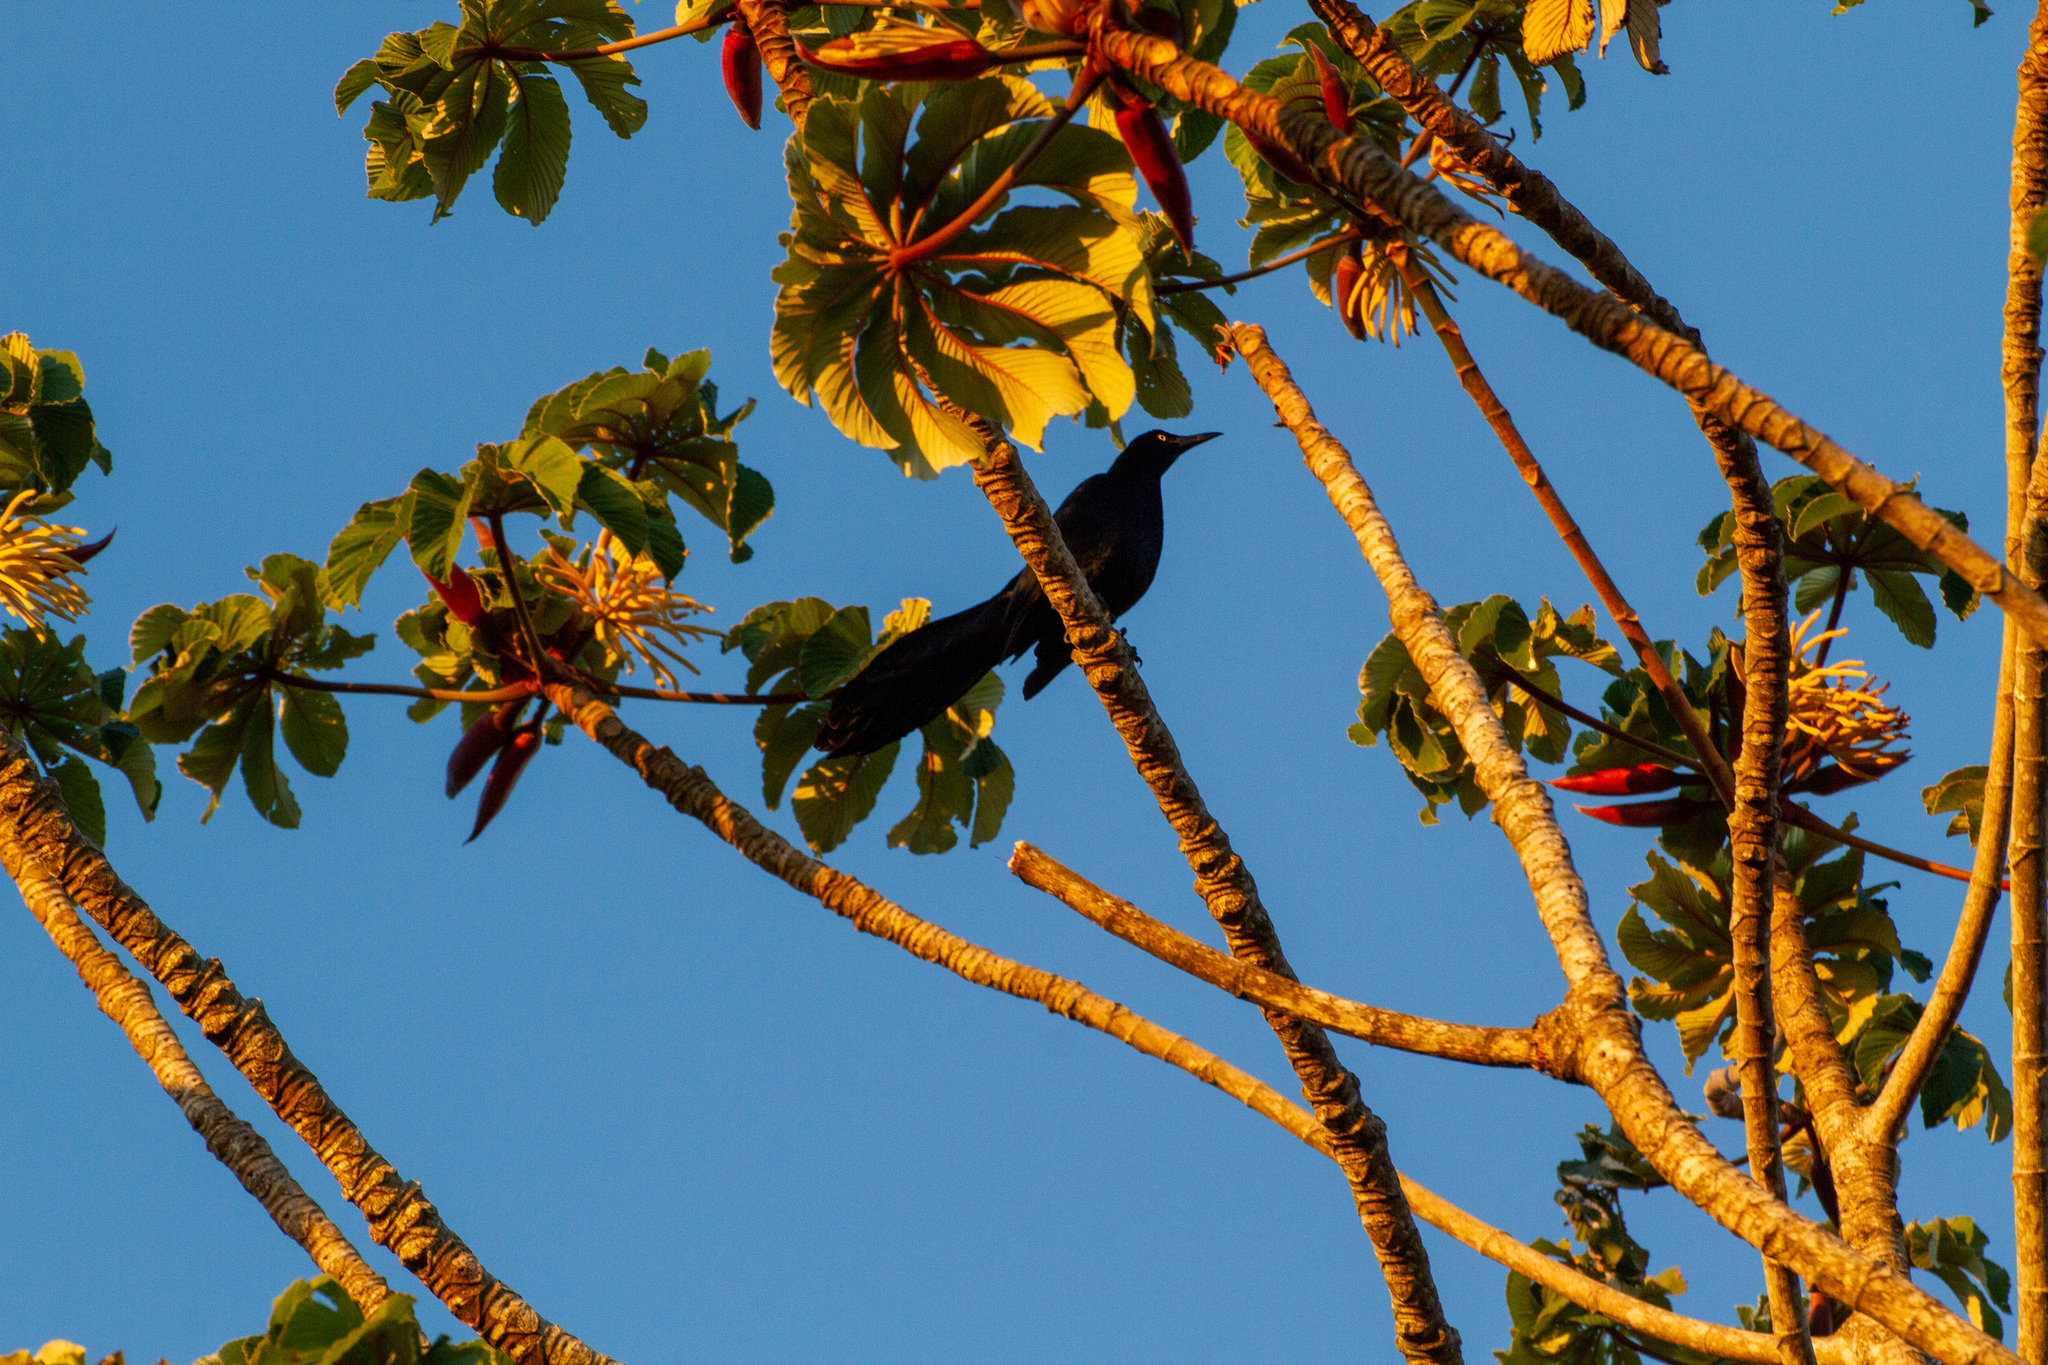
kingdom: Animalia
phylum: Chordata
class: Aves
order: Passeriformes
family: Icteridae
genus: Quiscalus
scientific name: Quiscalus mexicanus
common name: Great-tailed grackle
